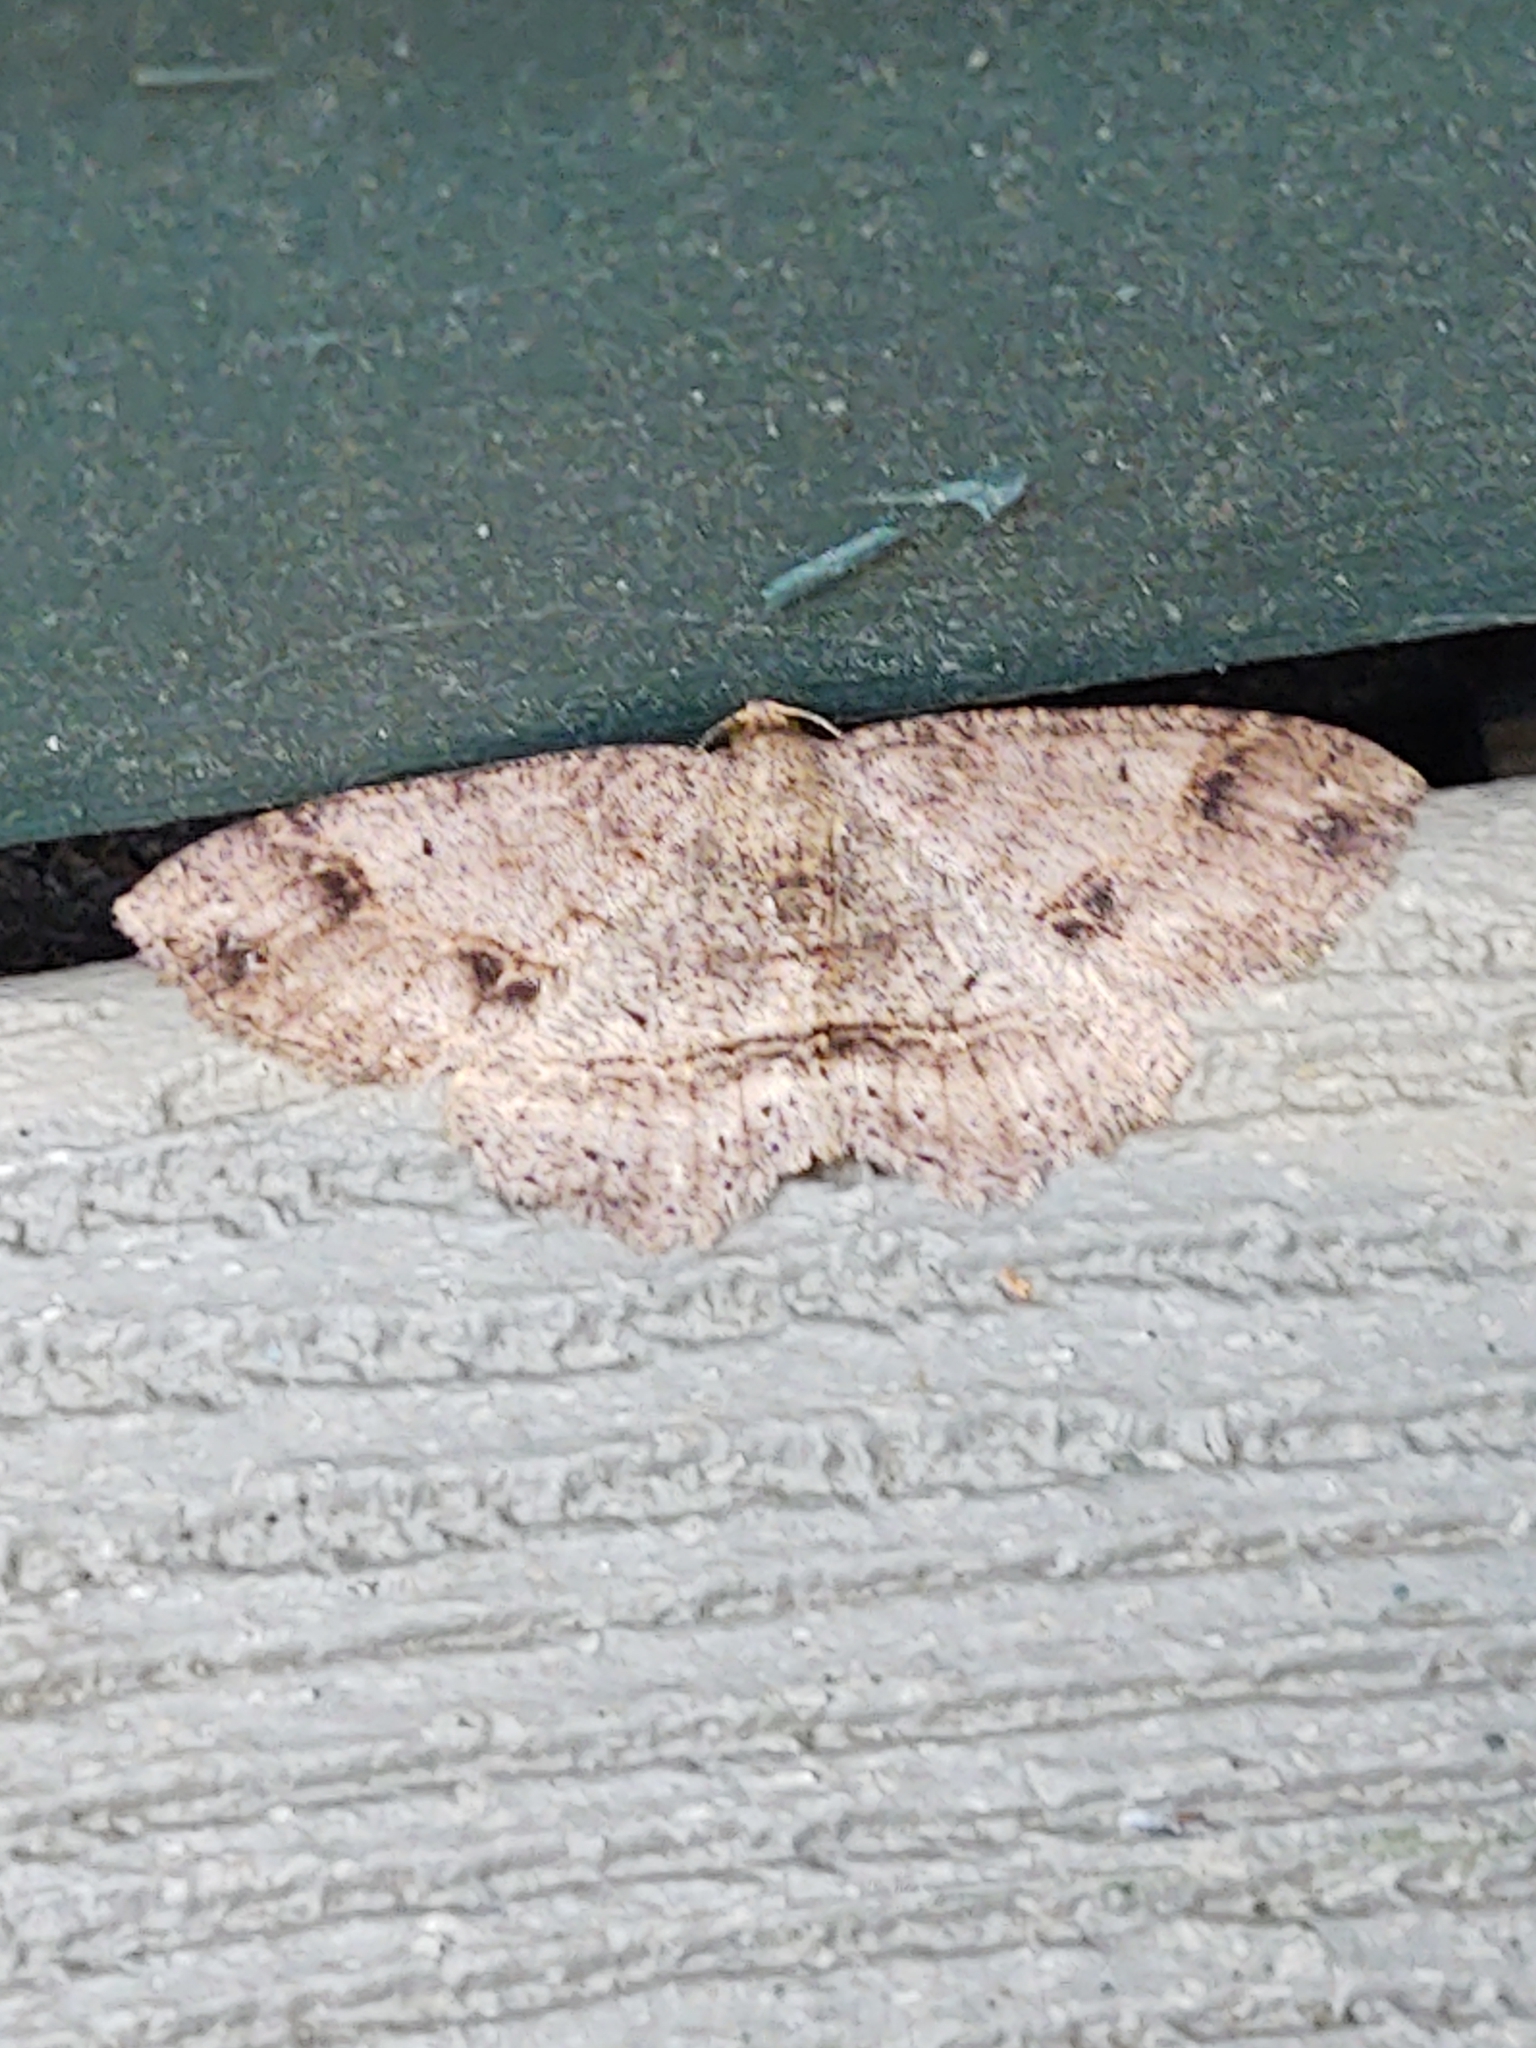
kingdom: Animalia
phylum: Arthropoda
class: Insecta
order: Lepidoptera
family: Geometridae
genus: Melanolophia
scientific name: Melanolophia signataria
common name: Signate melanolophia
